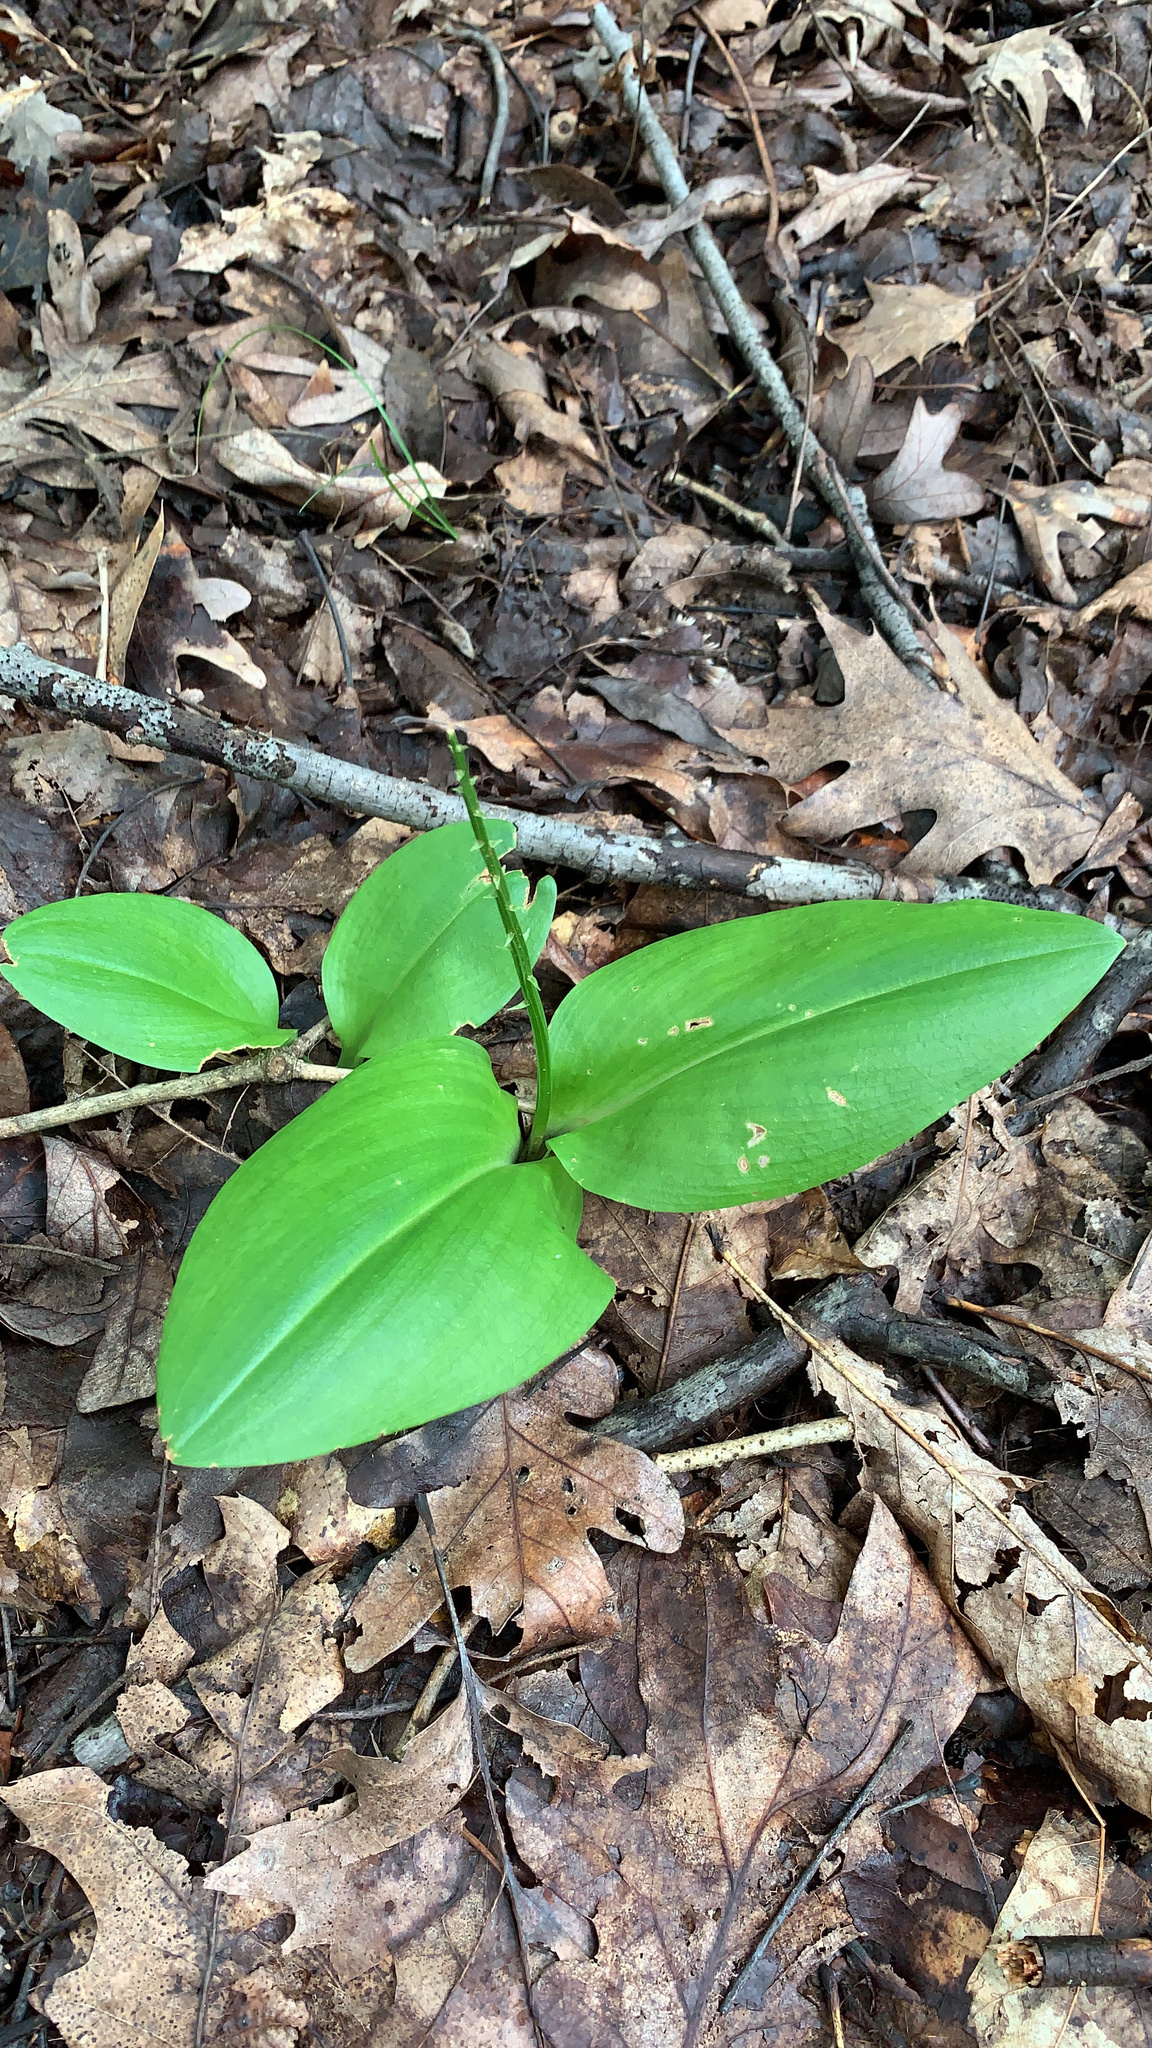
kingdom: Plantae
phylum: Tracheophyta
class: Liliopsida
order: Asparagales
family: Orchidaceae
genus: Liparis
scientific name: Liparis liliifolia
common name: Brown wide-lip orchid
